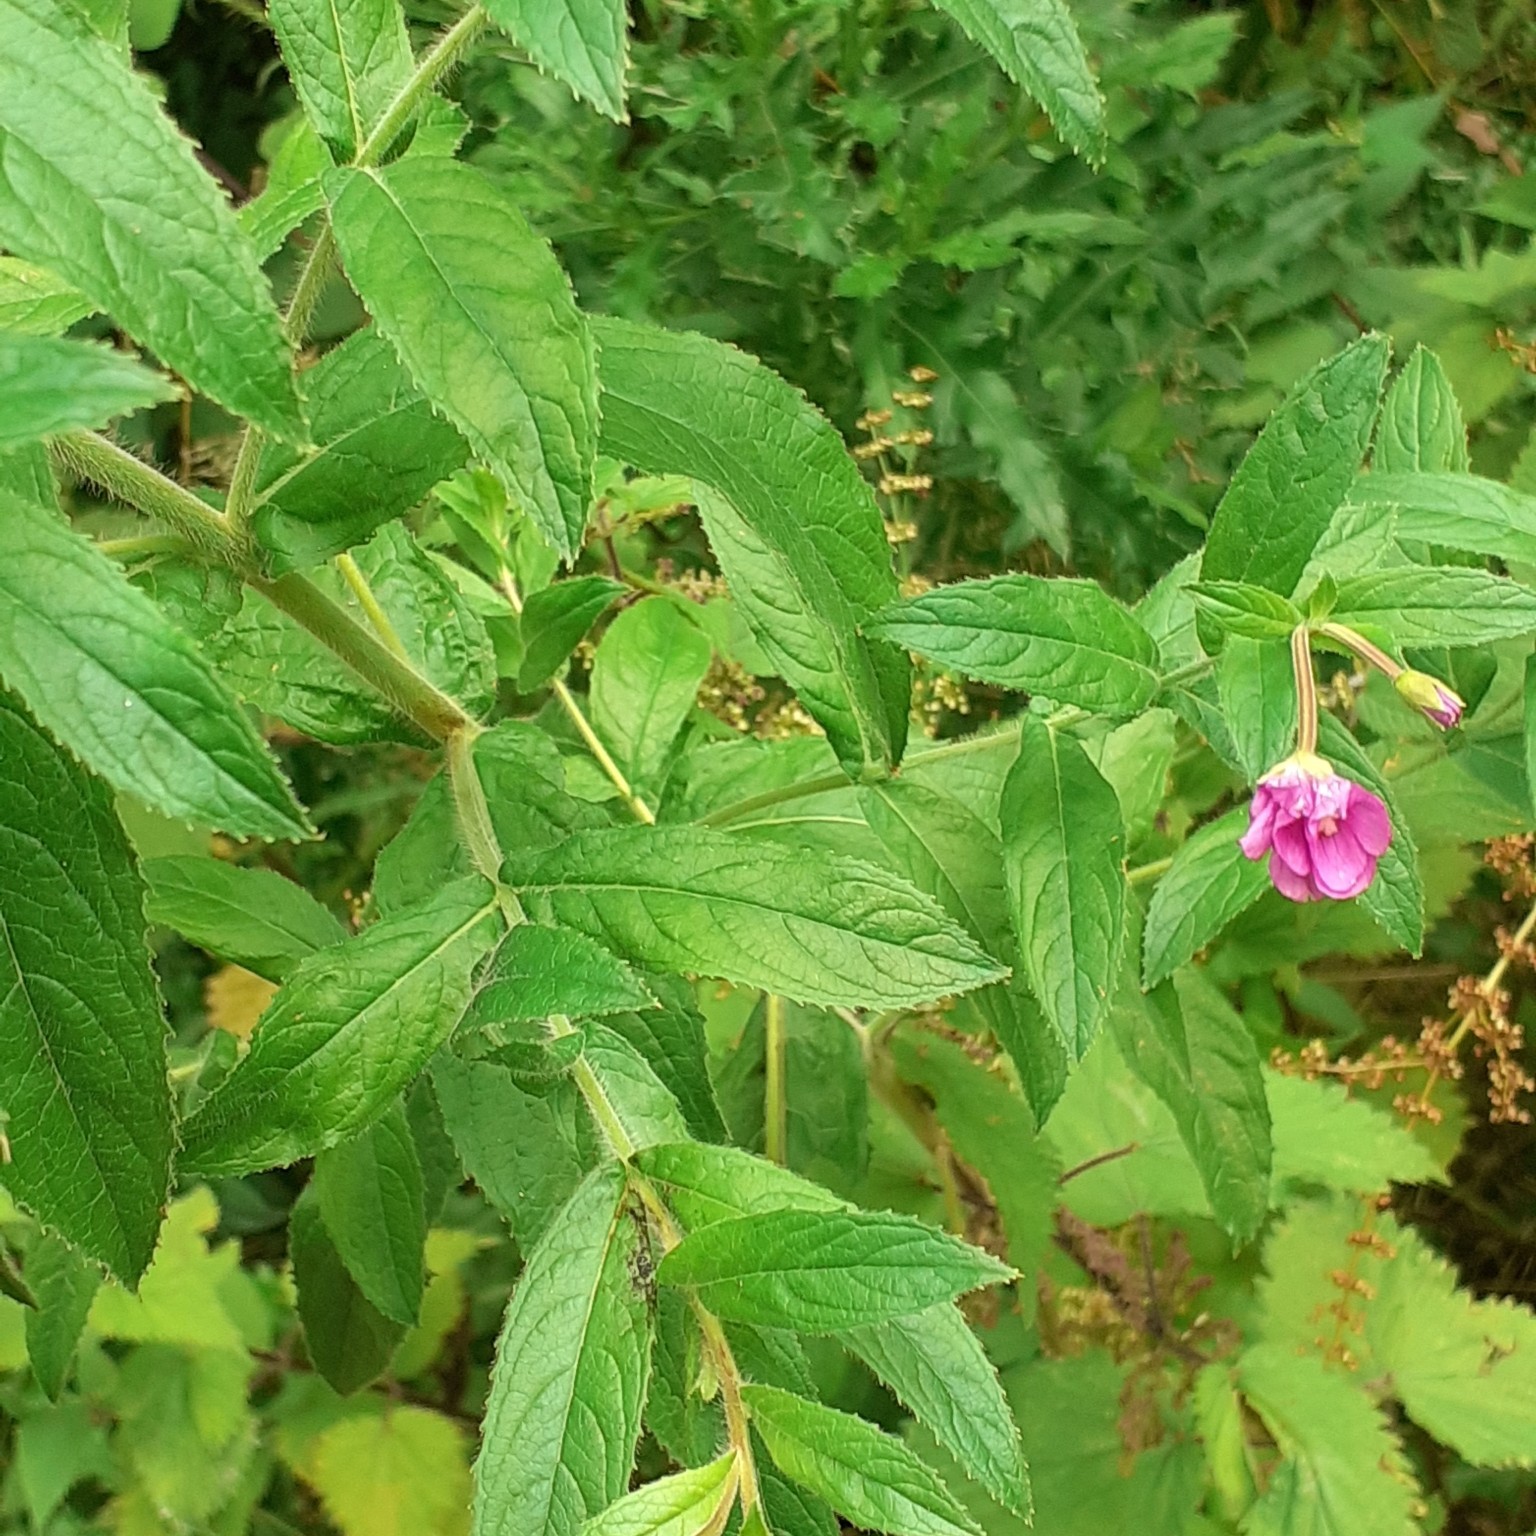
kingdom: Plantae
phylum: Tracheophyta
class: Magnoliopsida
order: Myrtales
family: Onagraceae
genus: Epilobium
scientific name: Epilobium hirsutum
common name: Great willowherb
